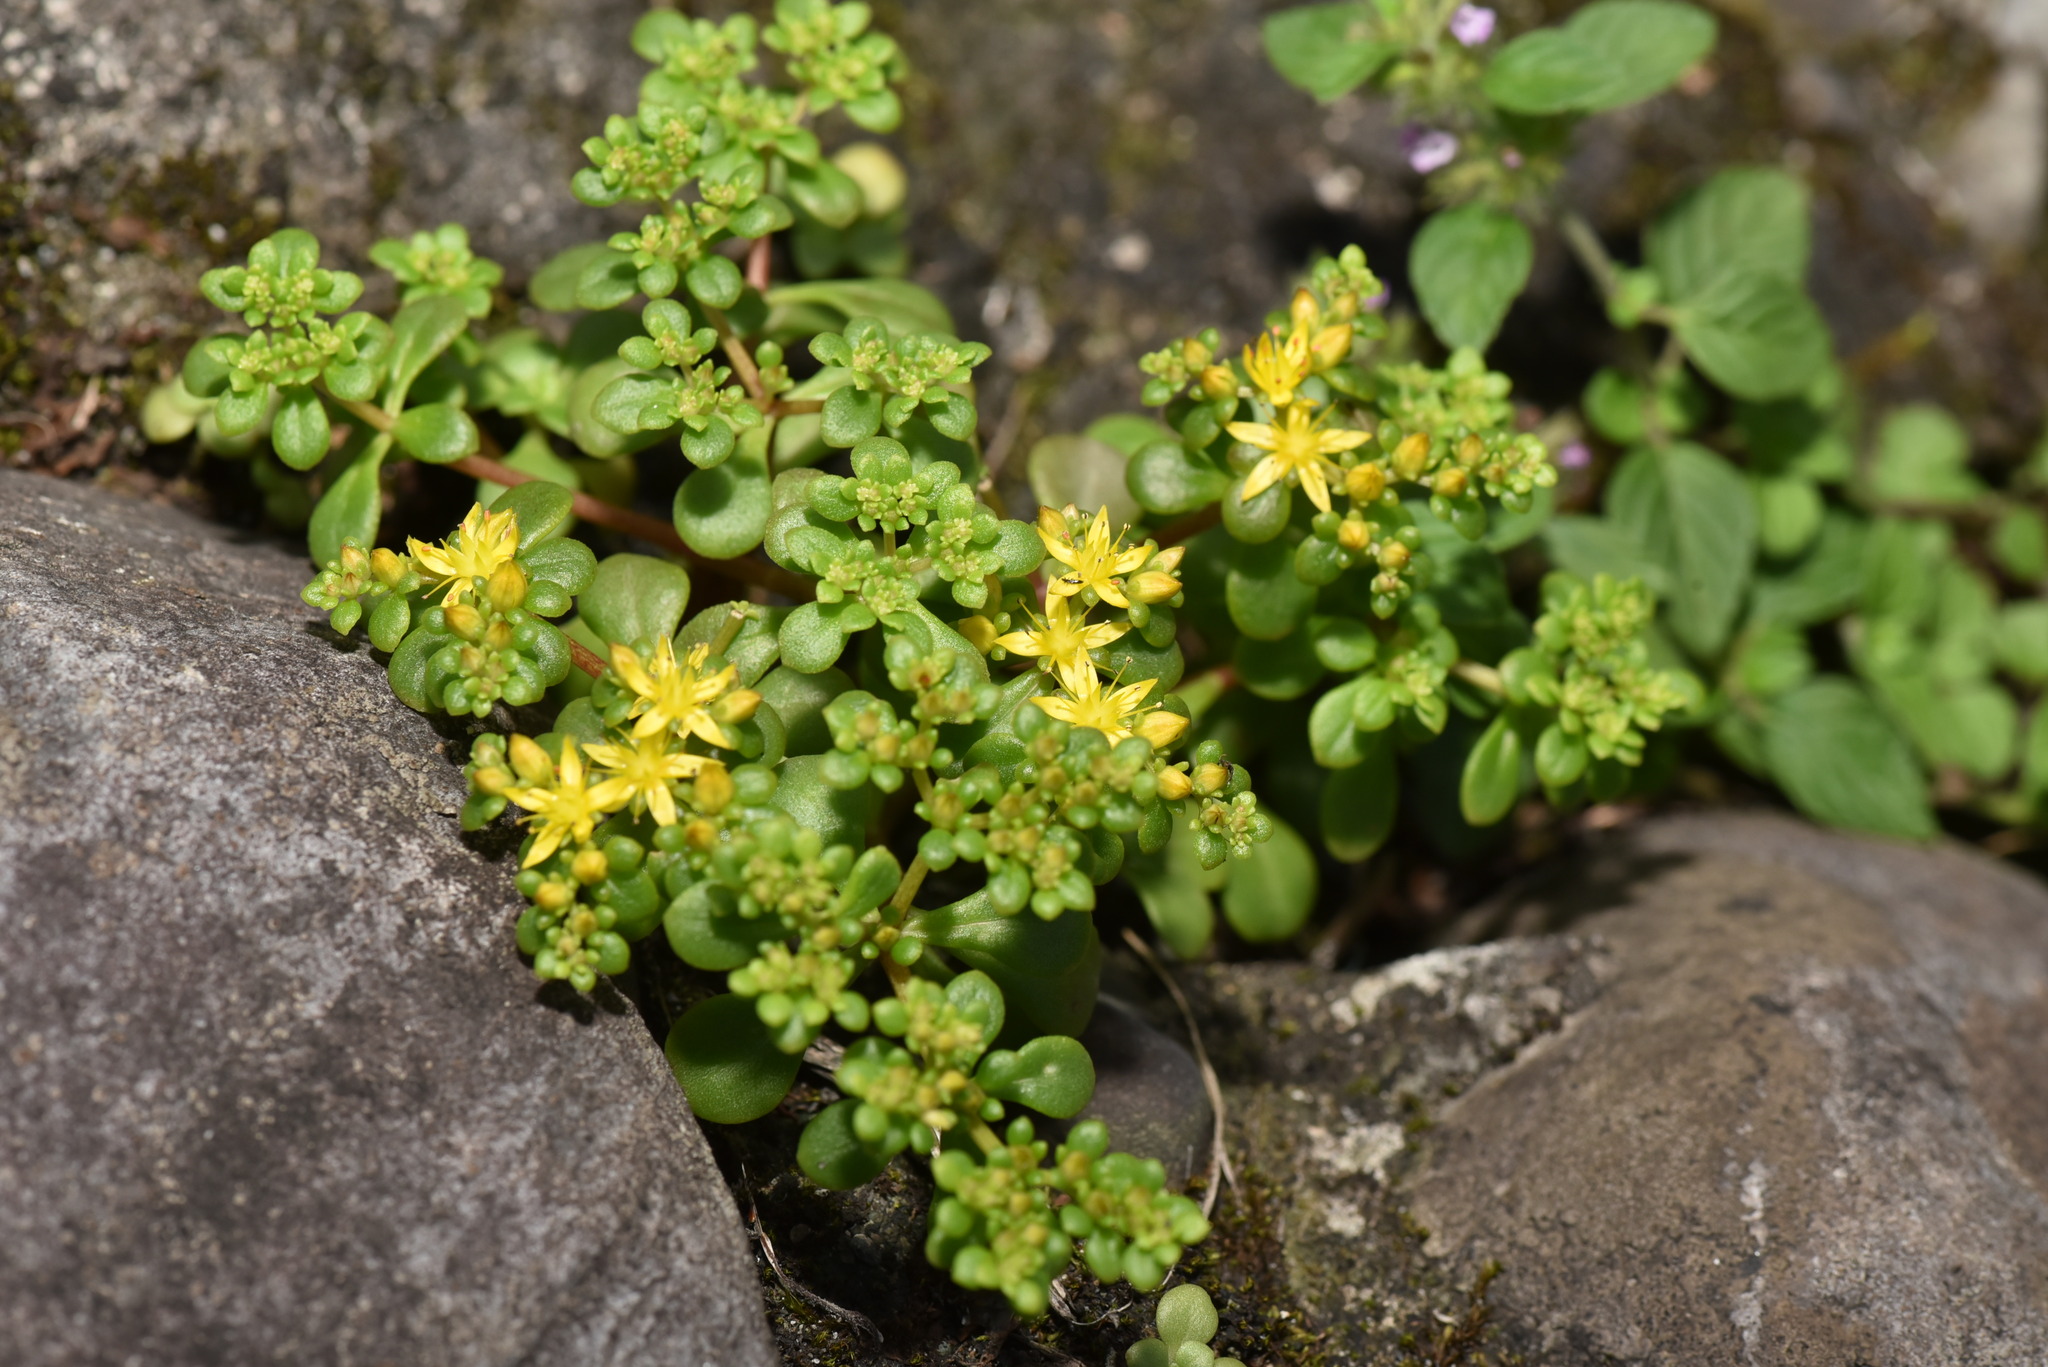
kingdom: Plantae
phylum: Tracheophyta
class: Magnoliopsida
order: Saxifragales
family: Crassulaceae
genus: Sedum
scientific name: Sedum formosanum
